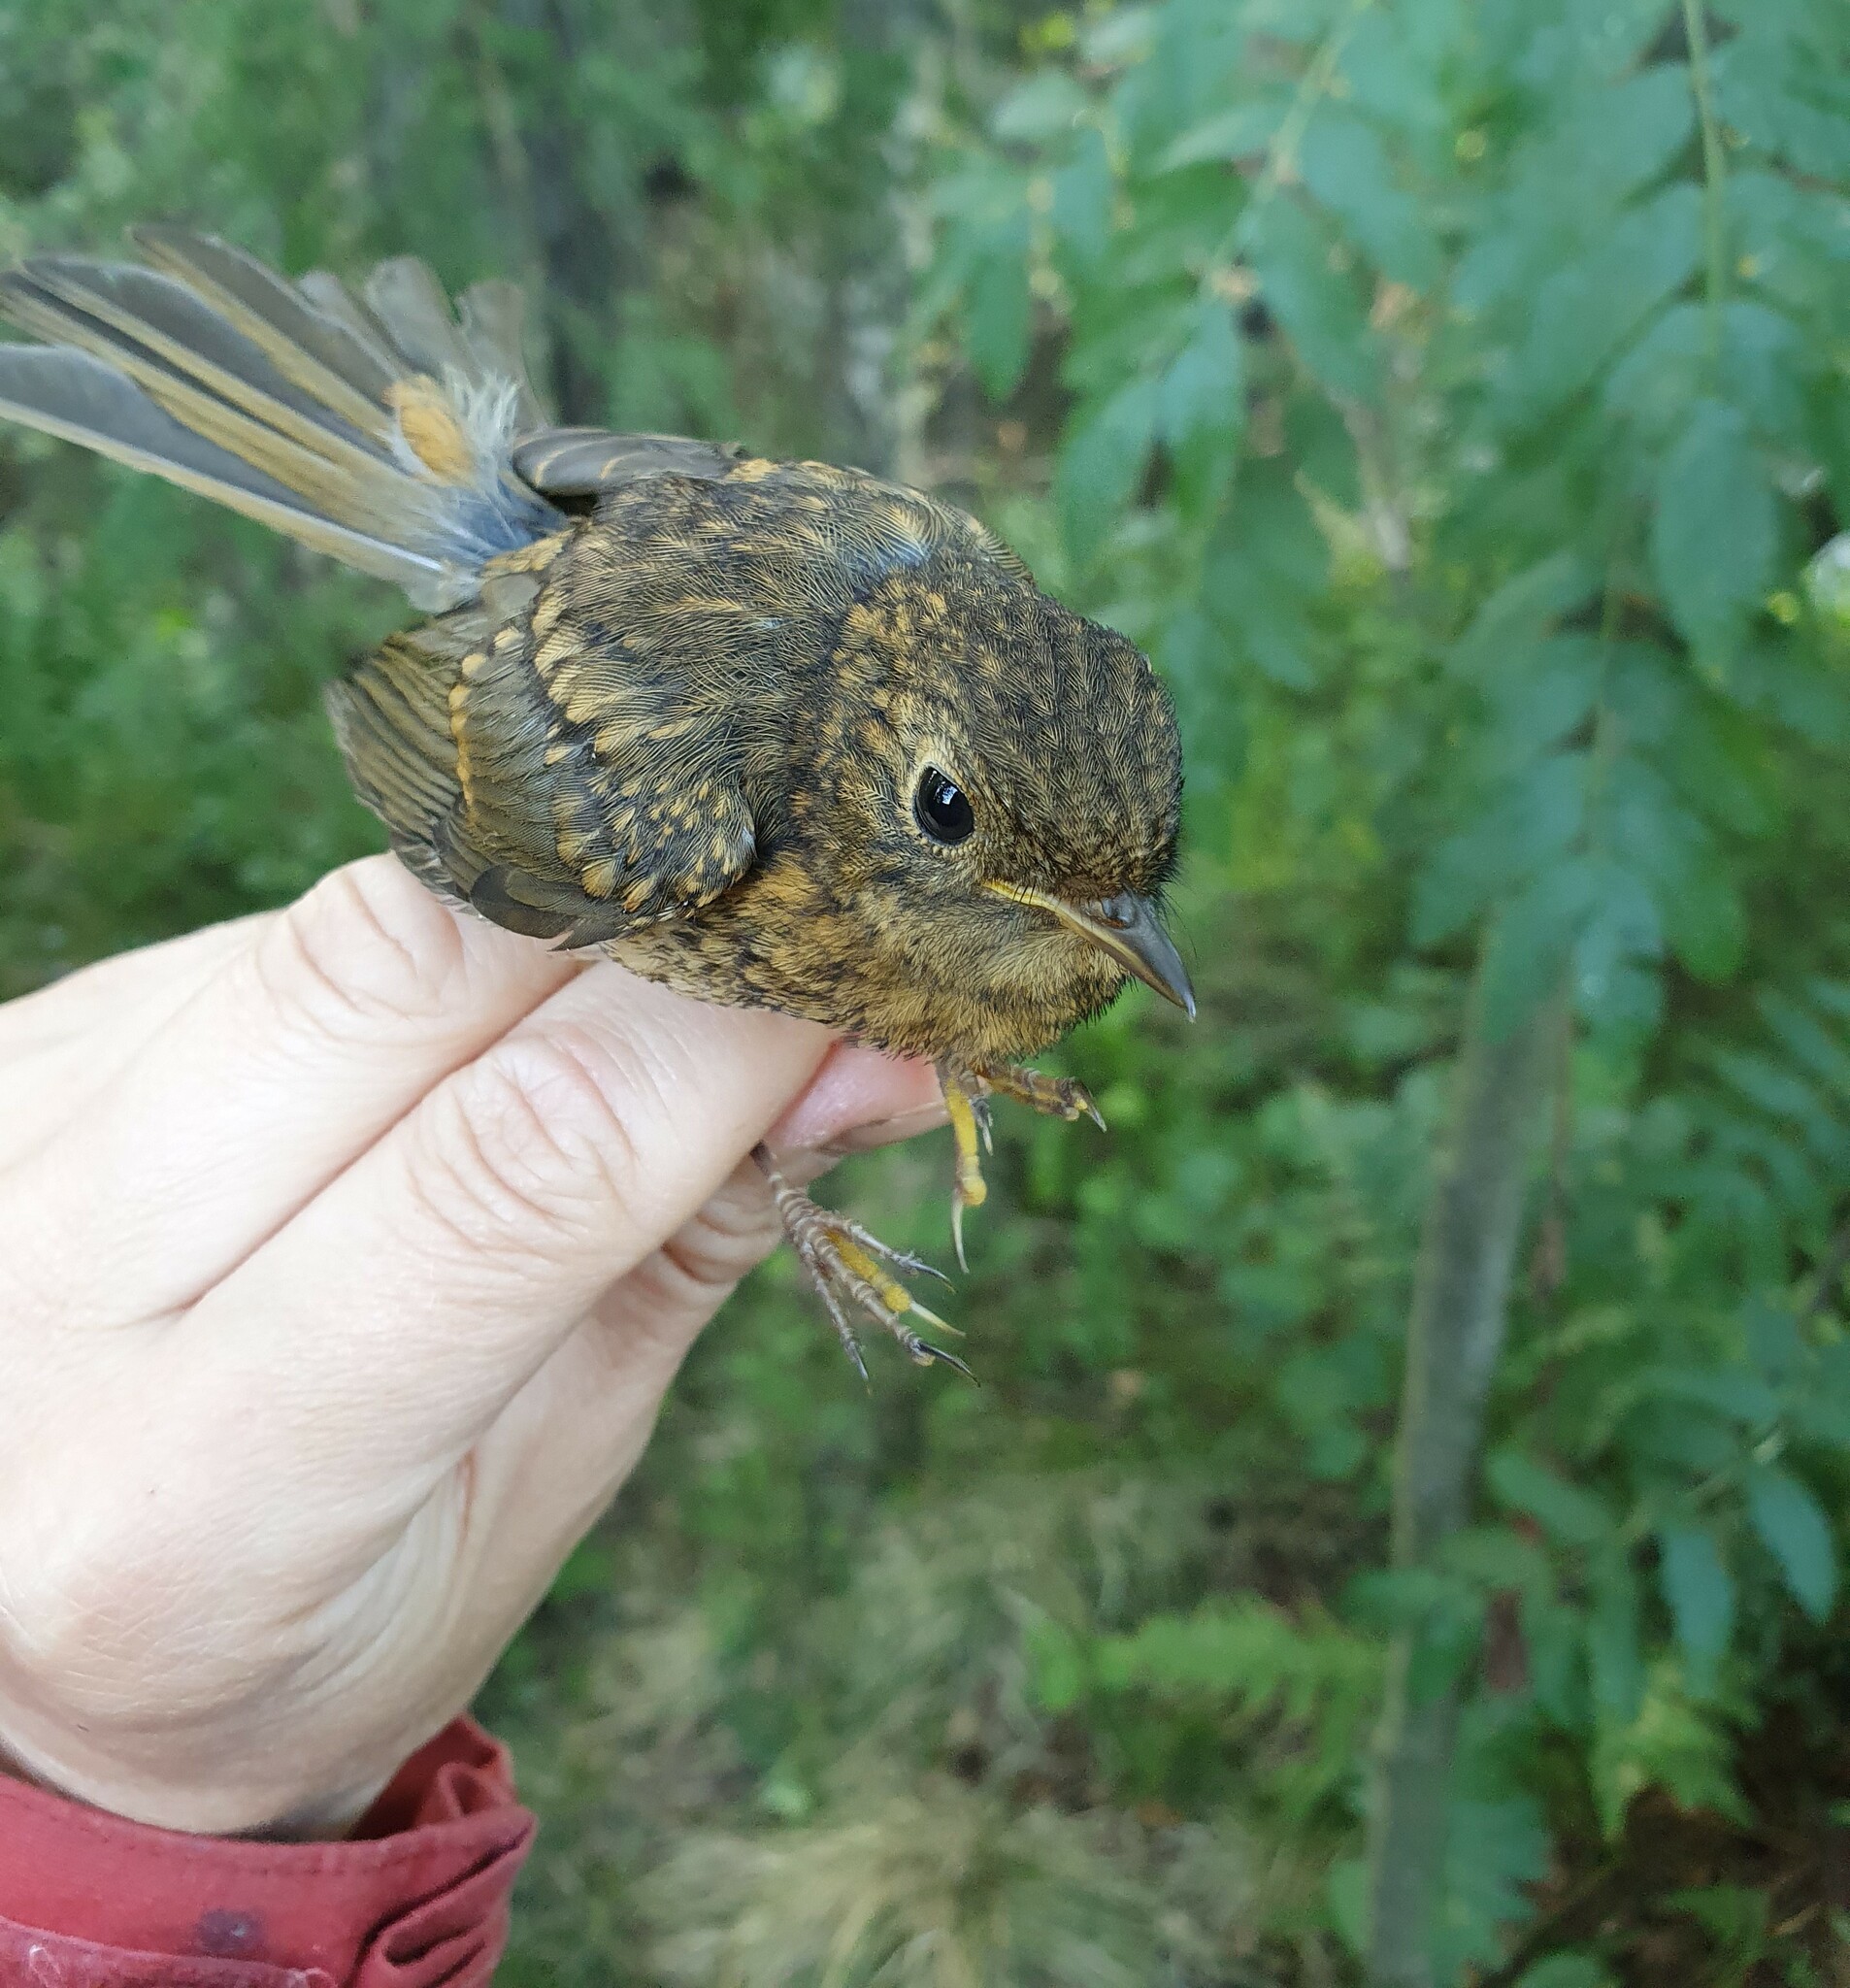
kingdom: Animalia
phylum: Chordata
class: Aves
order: Passeriformes
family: Muscicapidae
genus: Erithacus
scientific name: Erithacus rubecula
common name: European robin
